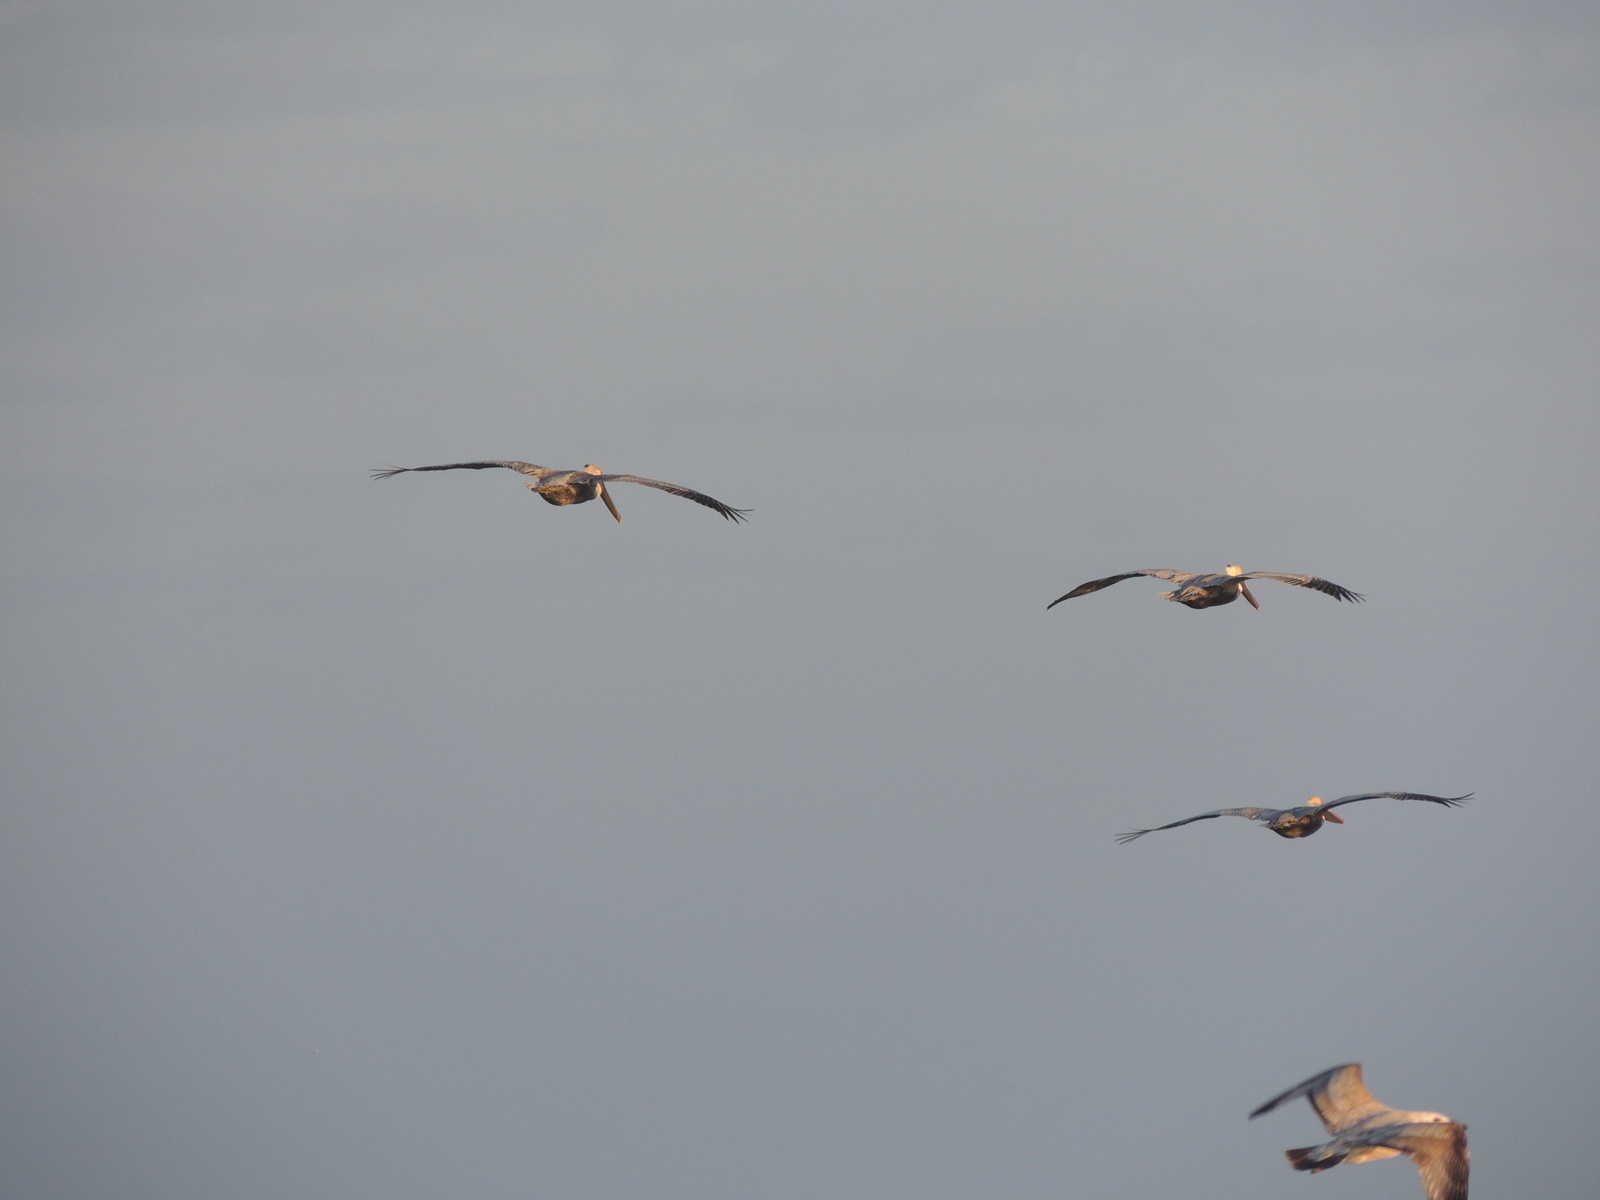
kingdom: Animalia
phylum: Chordata
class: Aves
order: Pelecaniformes
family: Pelecanidae
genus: Pelecanus
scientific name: Pelecanus occidentalis
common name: Brown pelican
